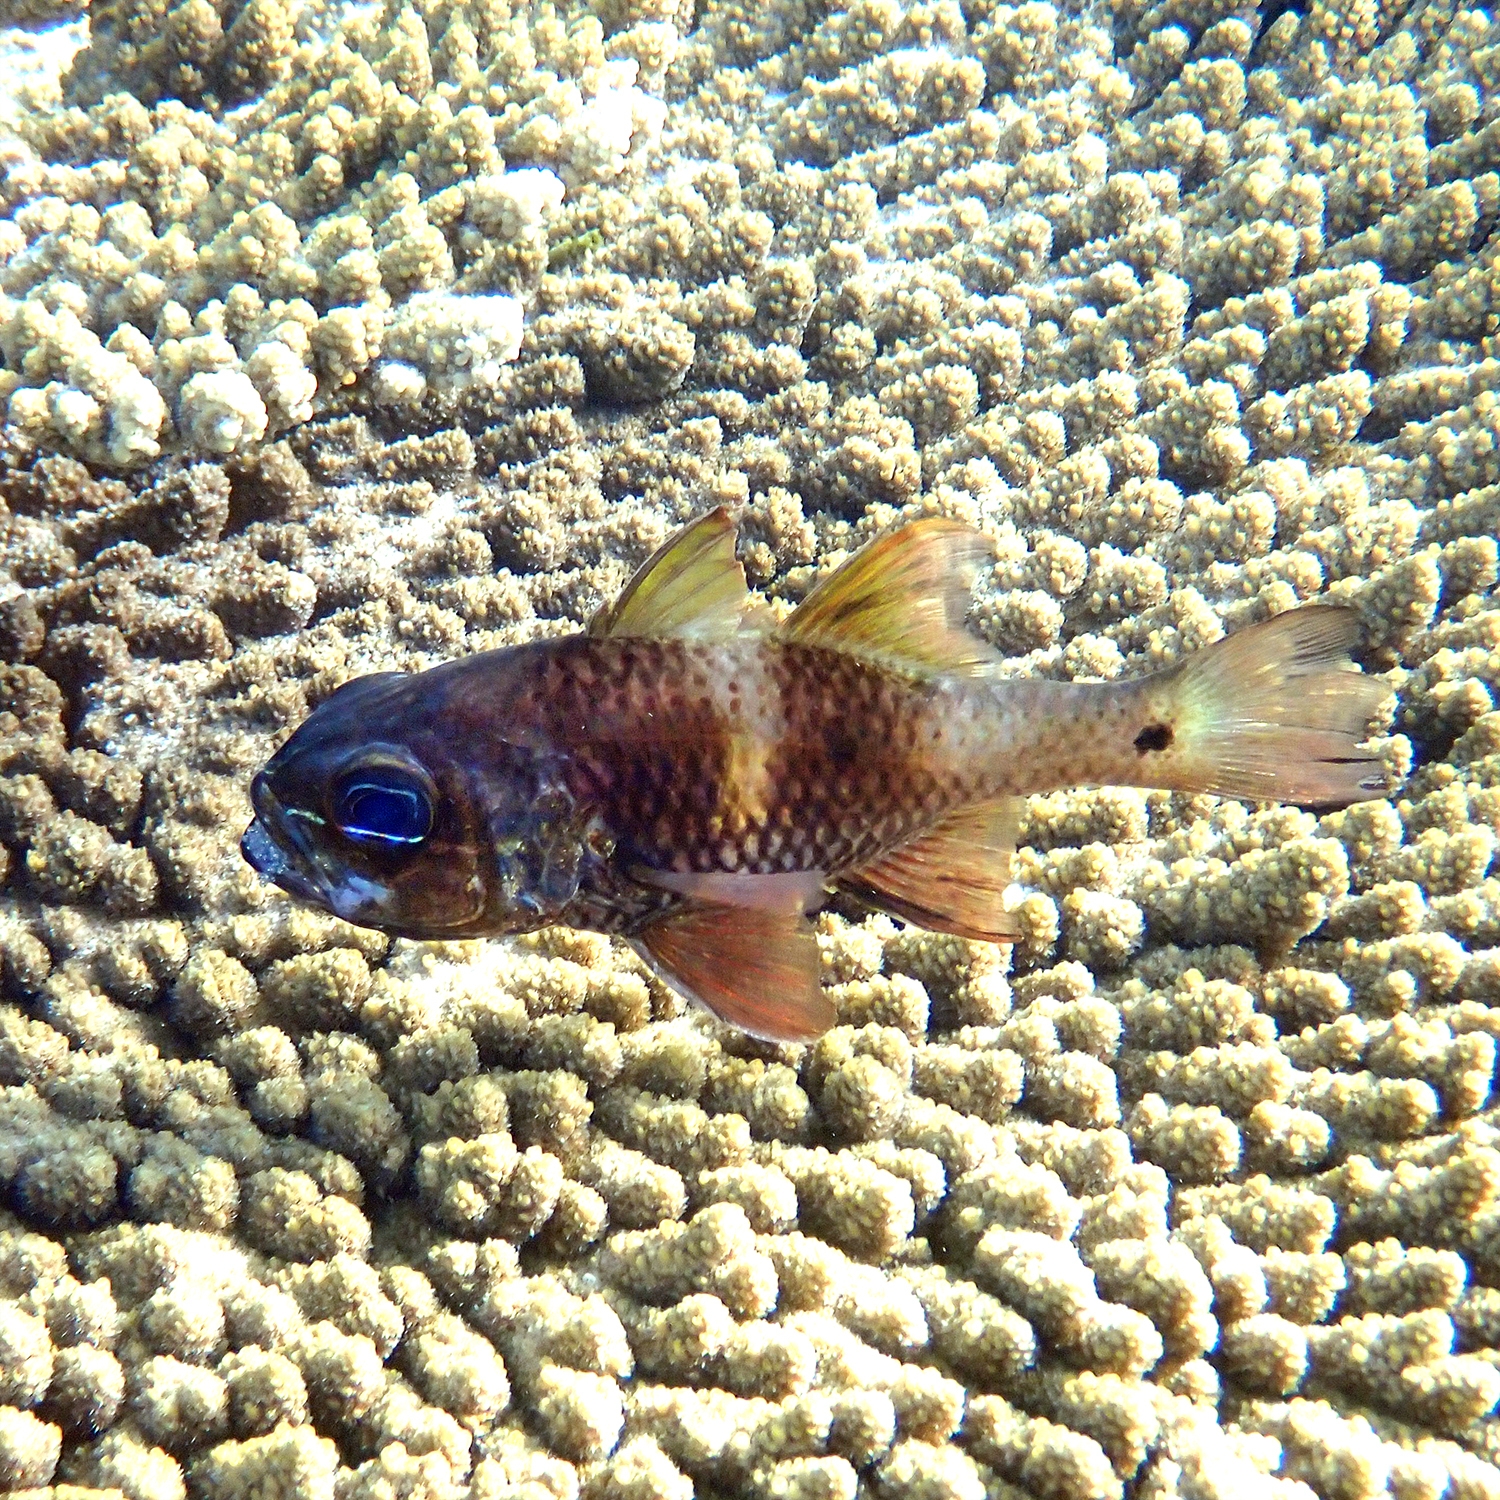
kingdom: Animalia
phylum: Chordata
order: Perciformes
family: Apogonidae
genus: Ostorhinchus
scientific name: Ostorhinchus norfolcensis
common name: Norfolk cardinalfish
